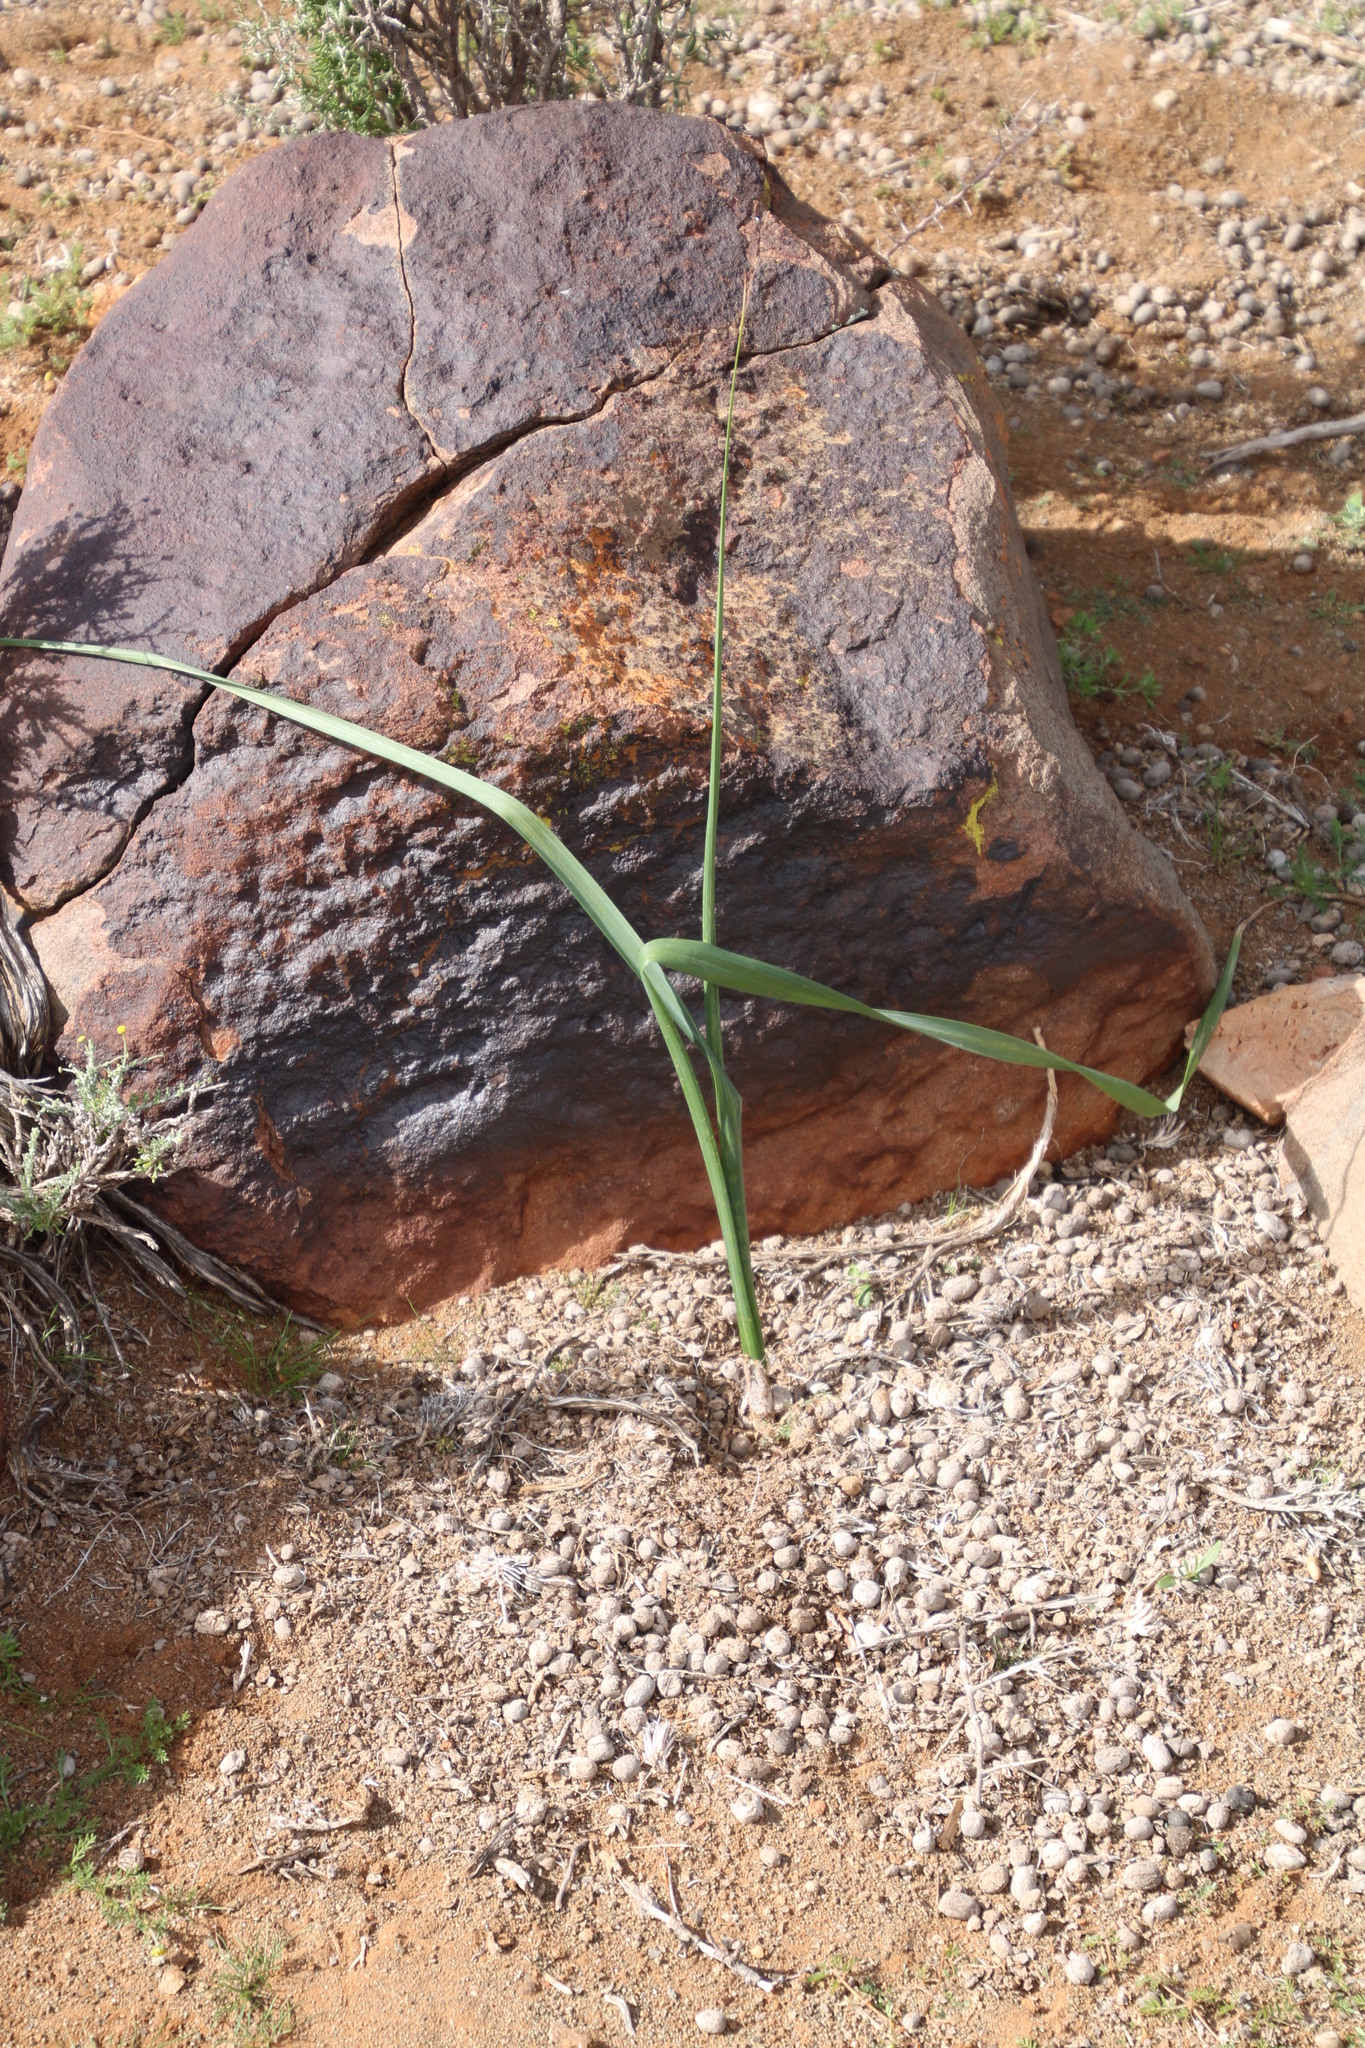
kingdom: Plantae
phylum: Tracheophyta
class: Liliopsida
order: Asparagales
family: Iridaceae
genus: Moraea
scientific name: Moraea polystachya
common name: Blue-tulip
